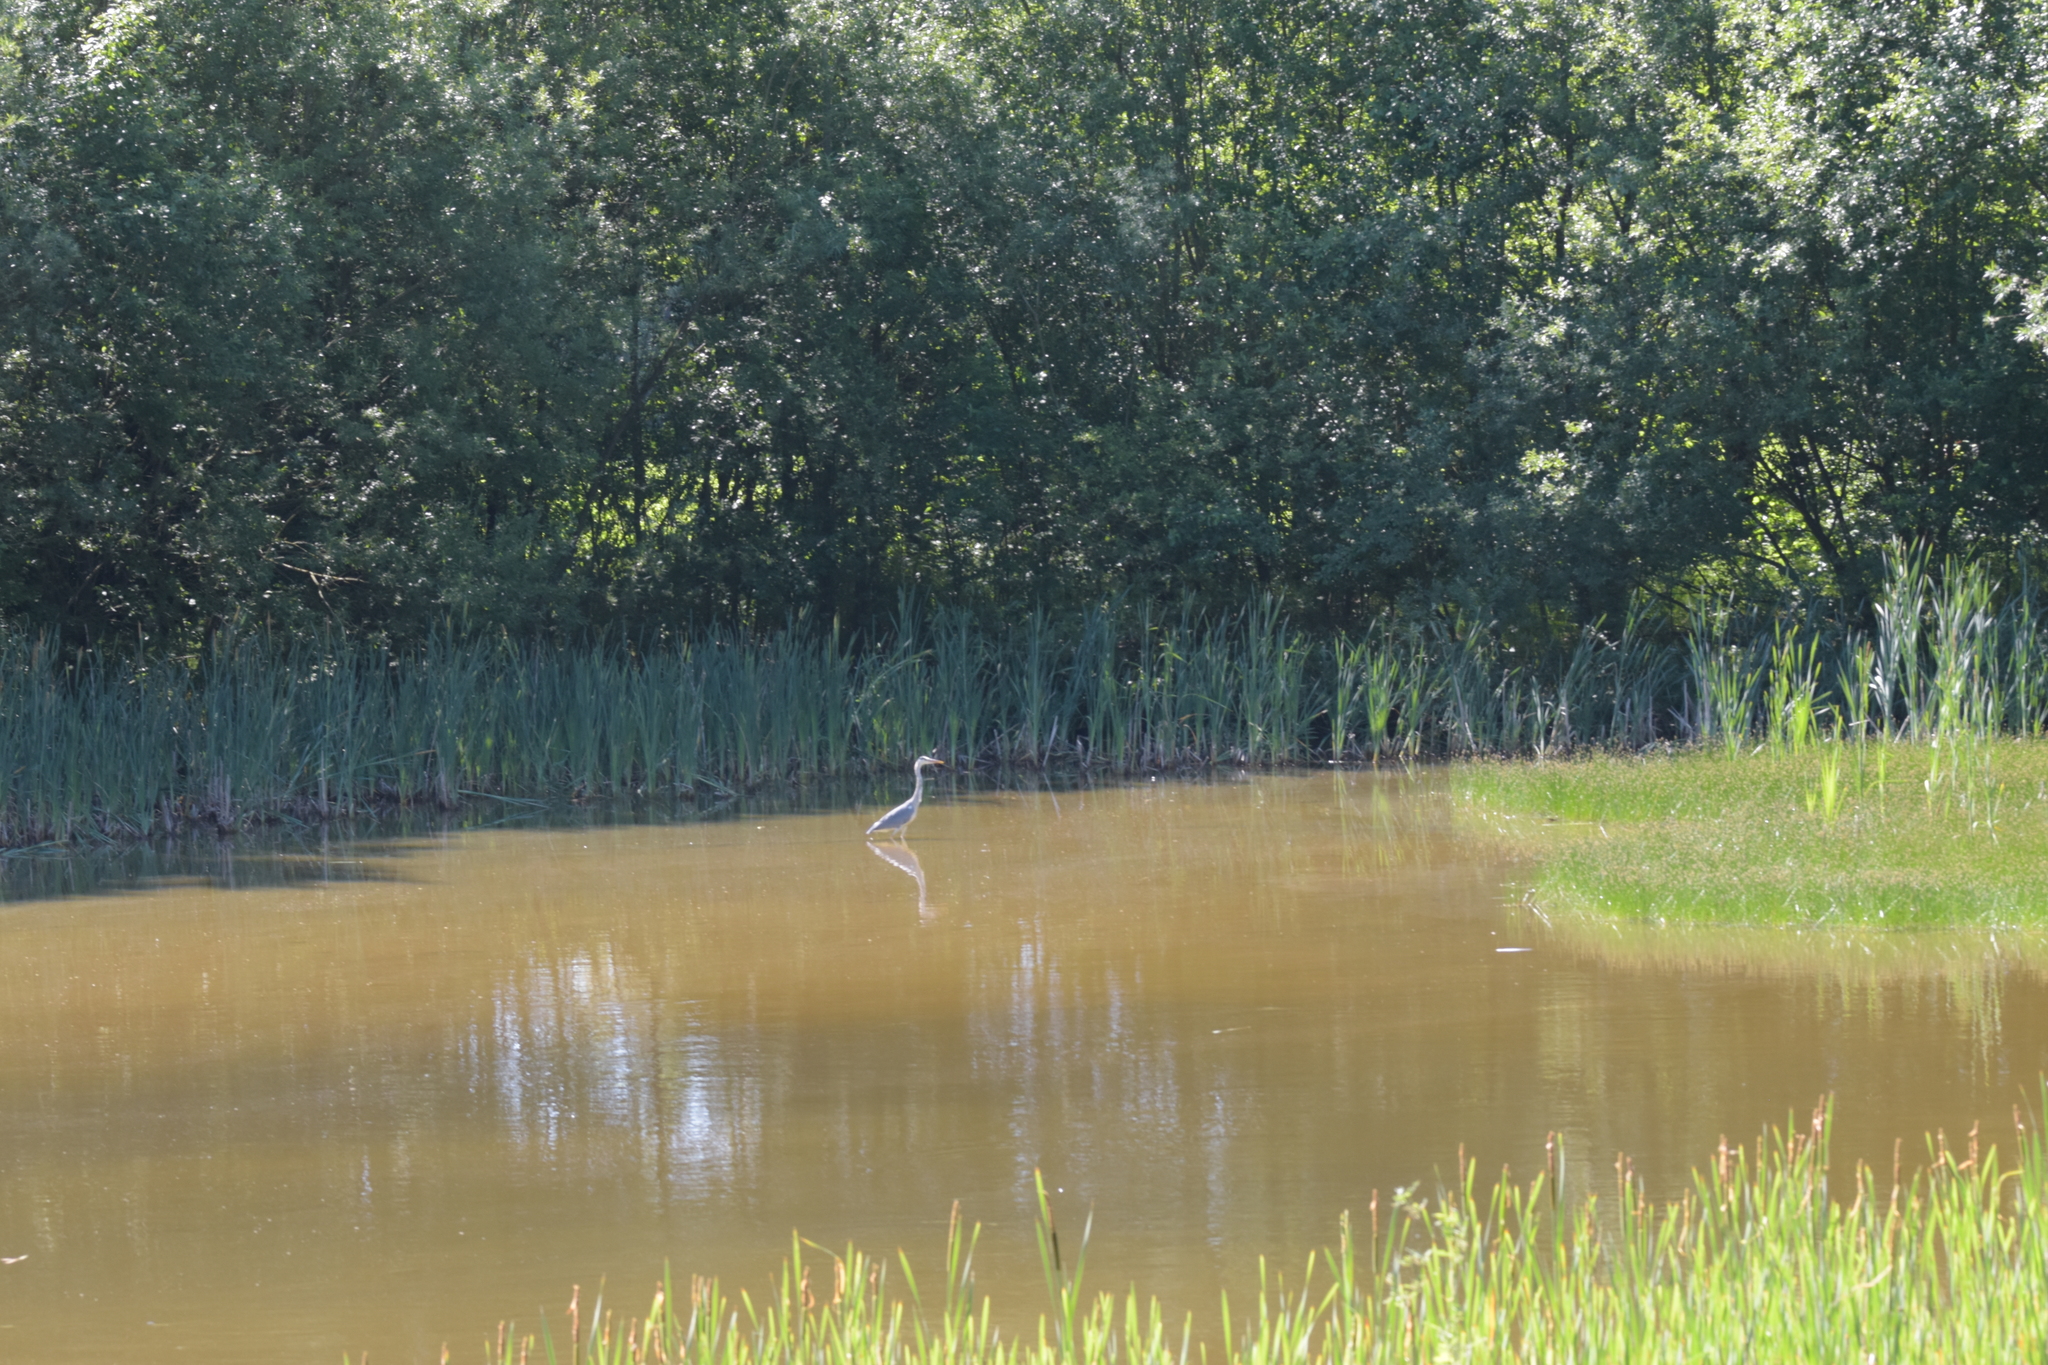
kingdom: Animalia
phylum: Chordata
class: Aves
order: Pelecaniformes
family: Ardeidae
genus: Ardea
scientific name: Ardea cinerea
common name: Grey heron
